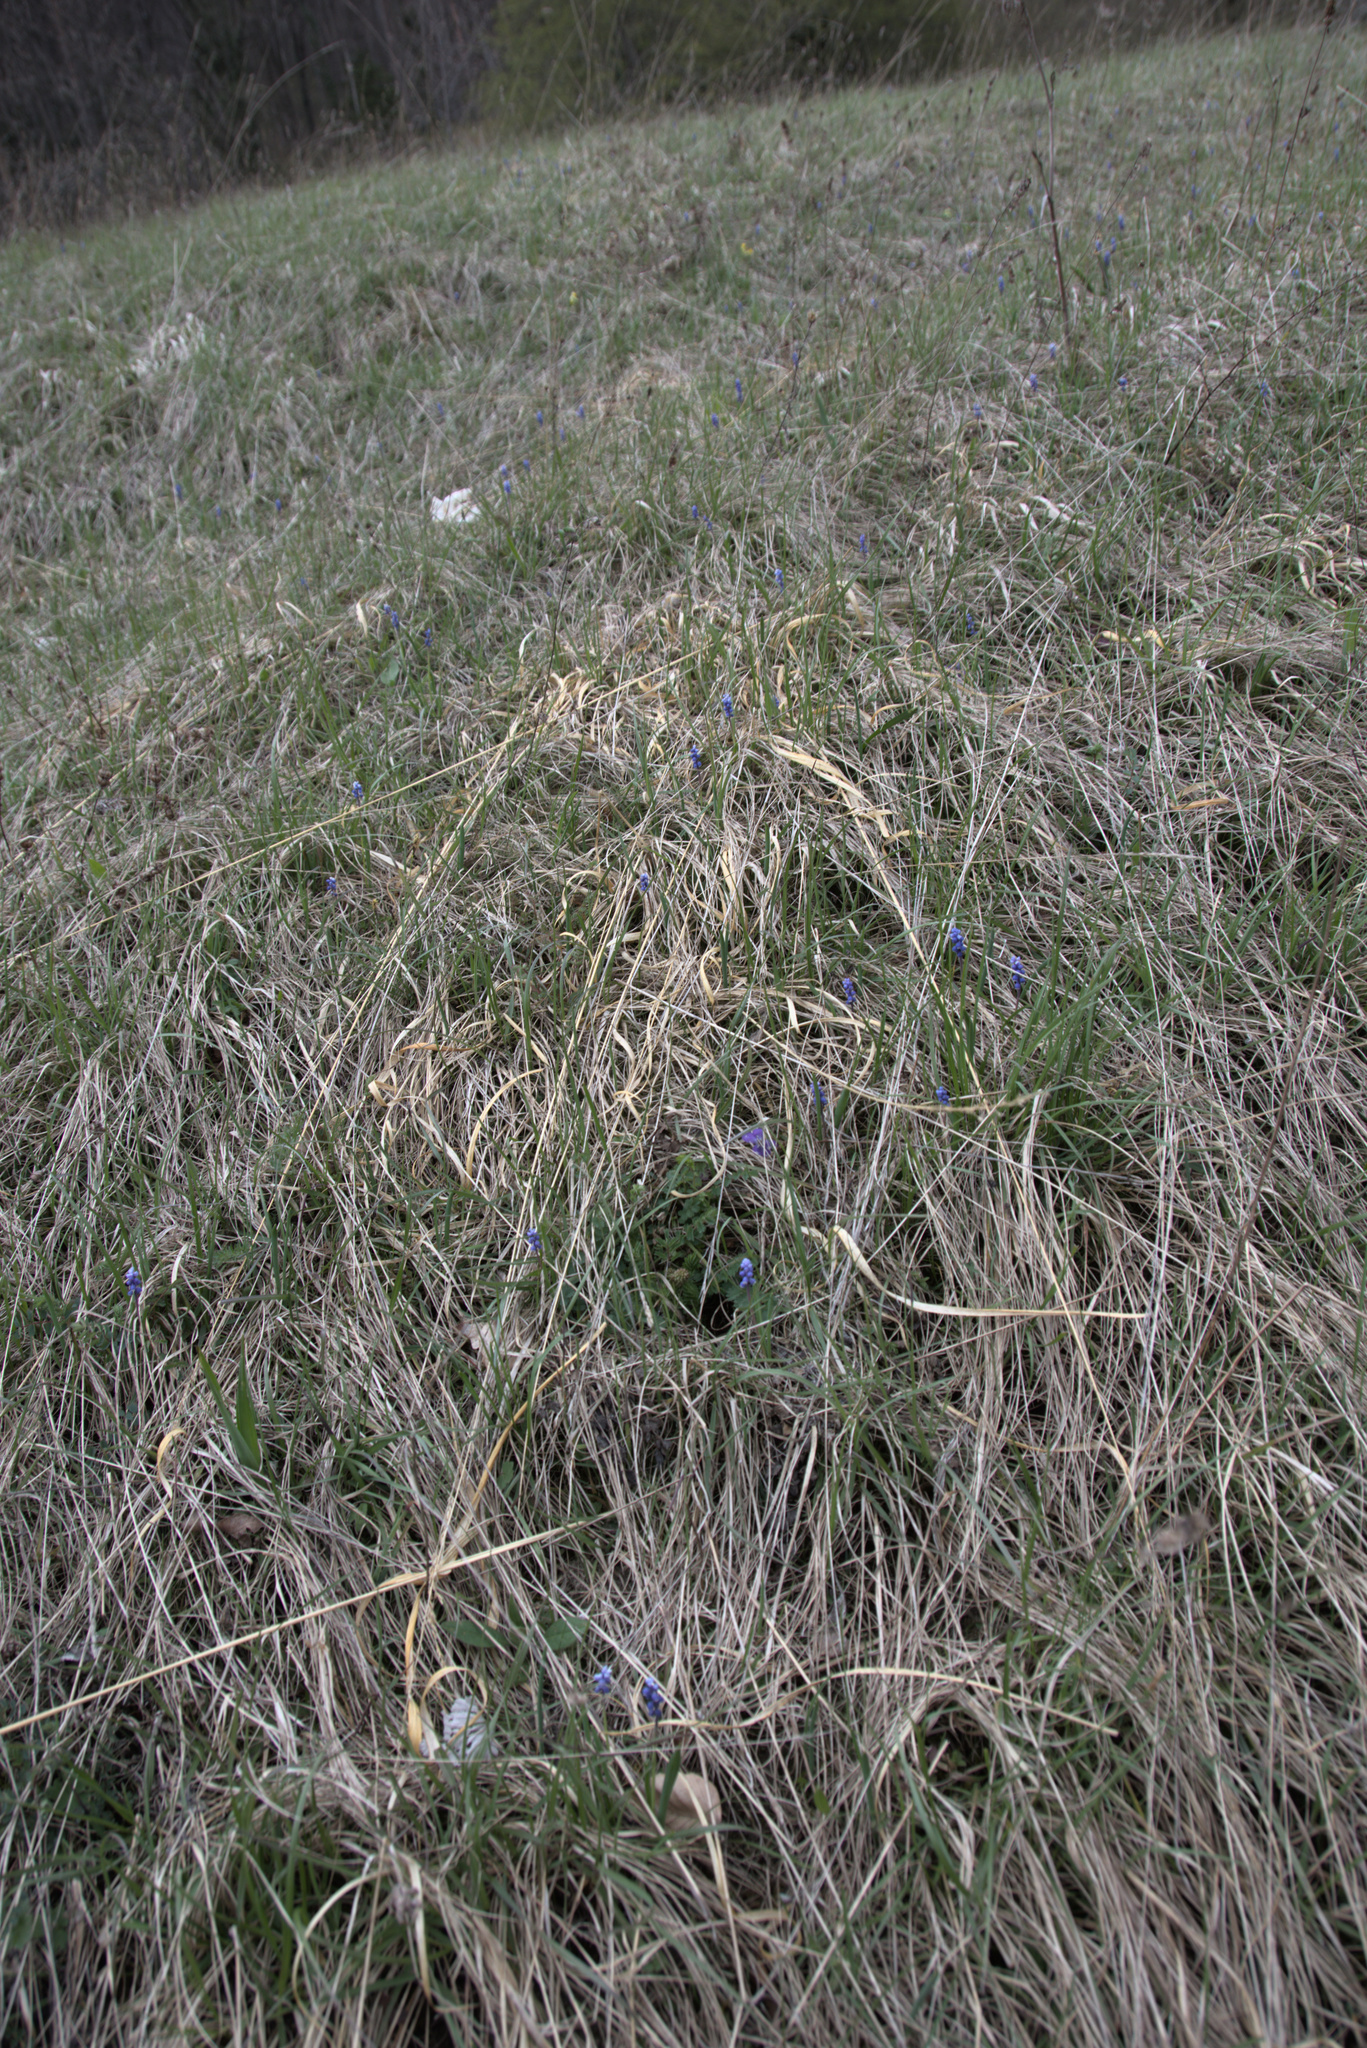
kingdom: Plantae
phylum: Tracheophyta
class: Liliopsida
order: Asparagales
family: Asparagaceae
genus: Muscari
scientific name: Muscari botryoides
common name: Compact grape-hyacinth
